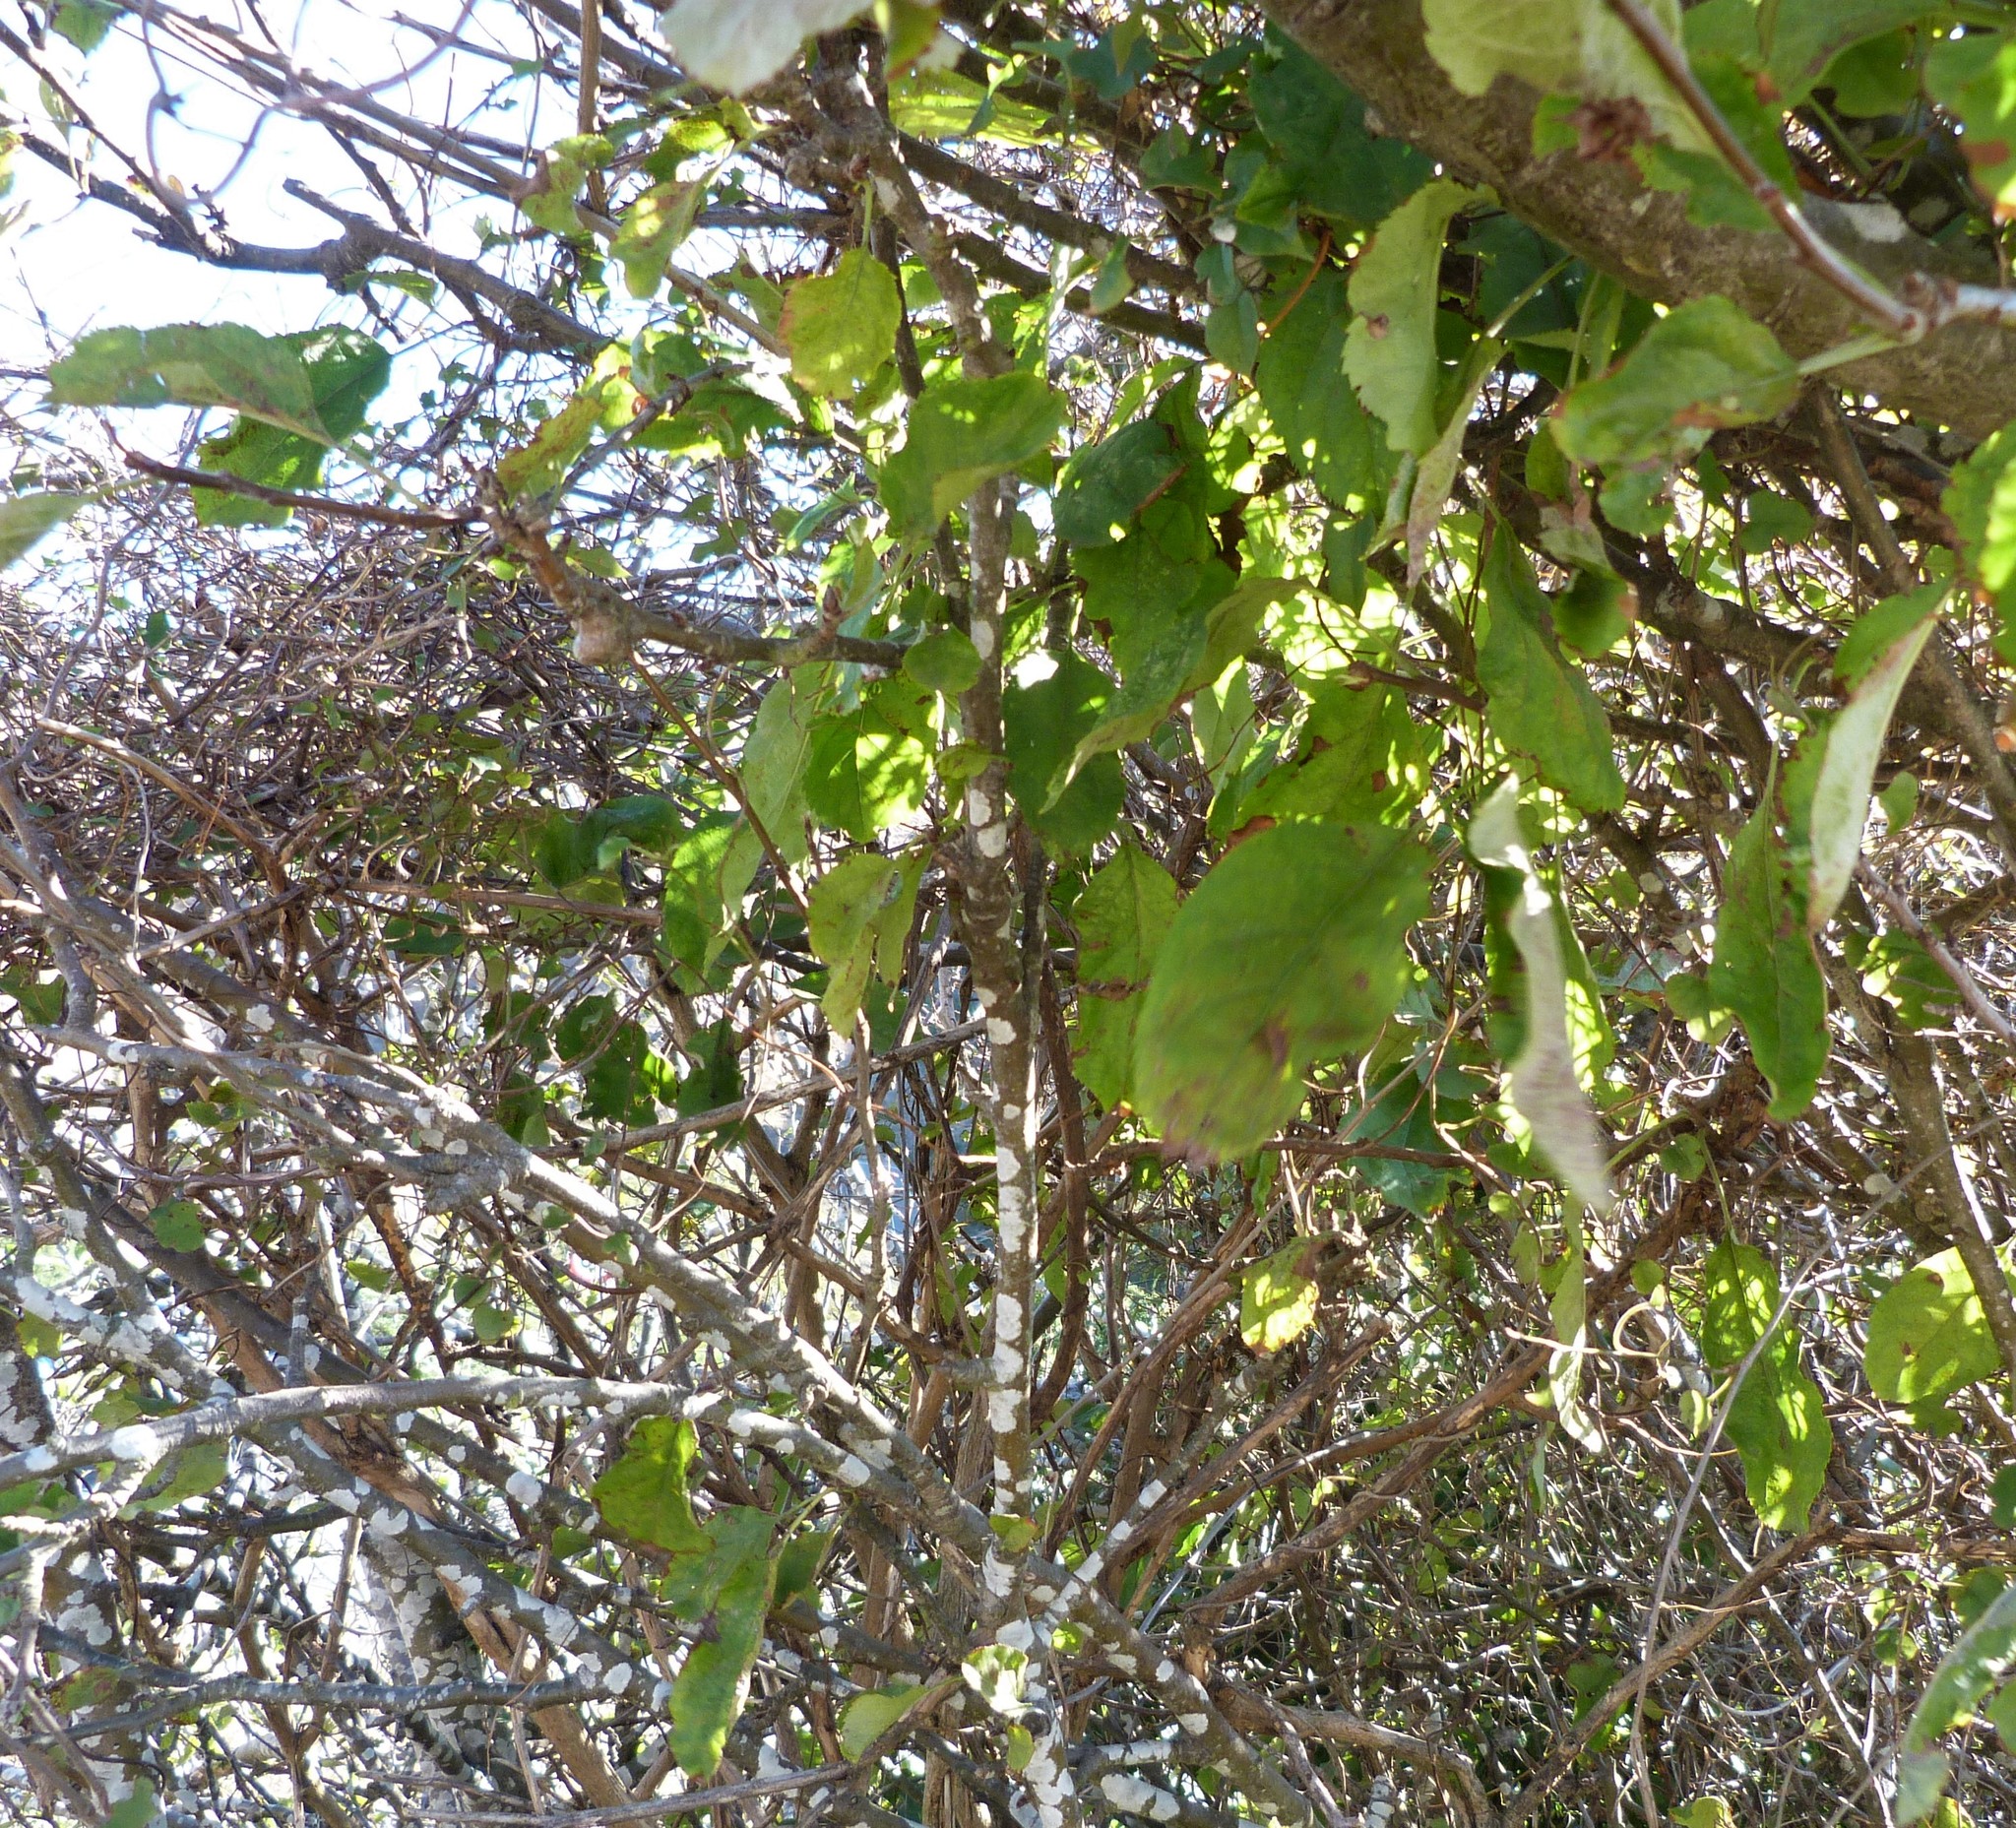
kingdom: Plantae
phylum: Tracheophyta
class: Magnoliopsida
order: Rosales
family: Rosaceae
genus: Malus
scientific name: Malus domestica
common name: Apple
